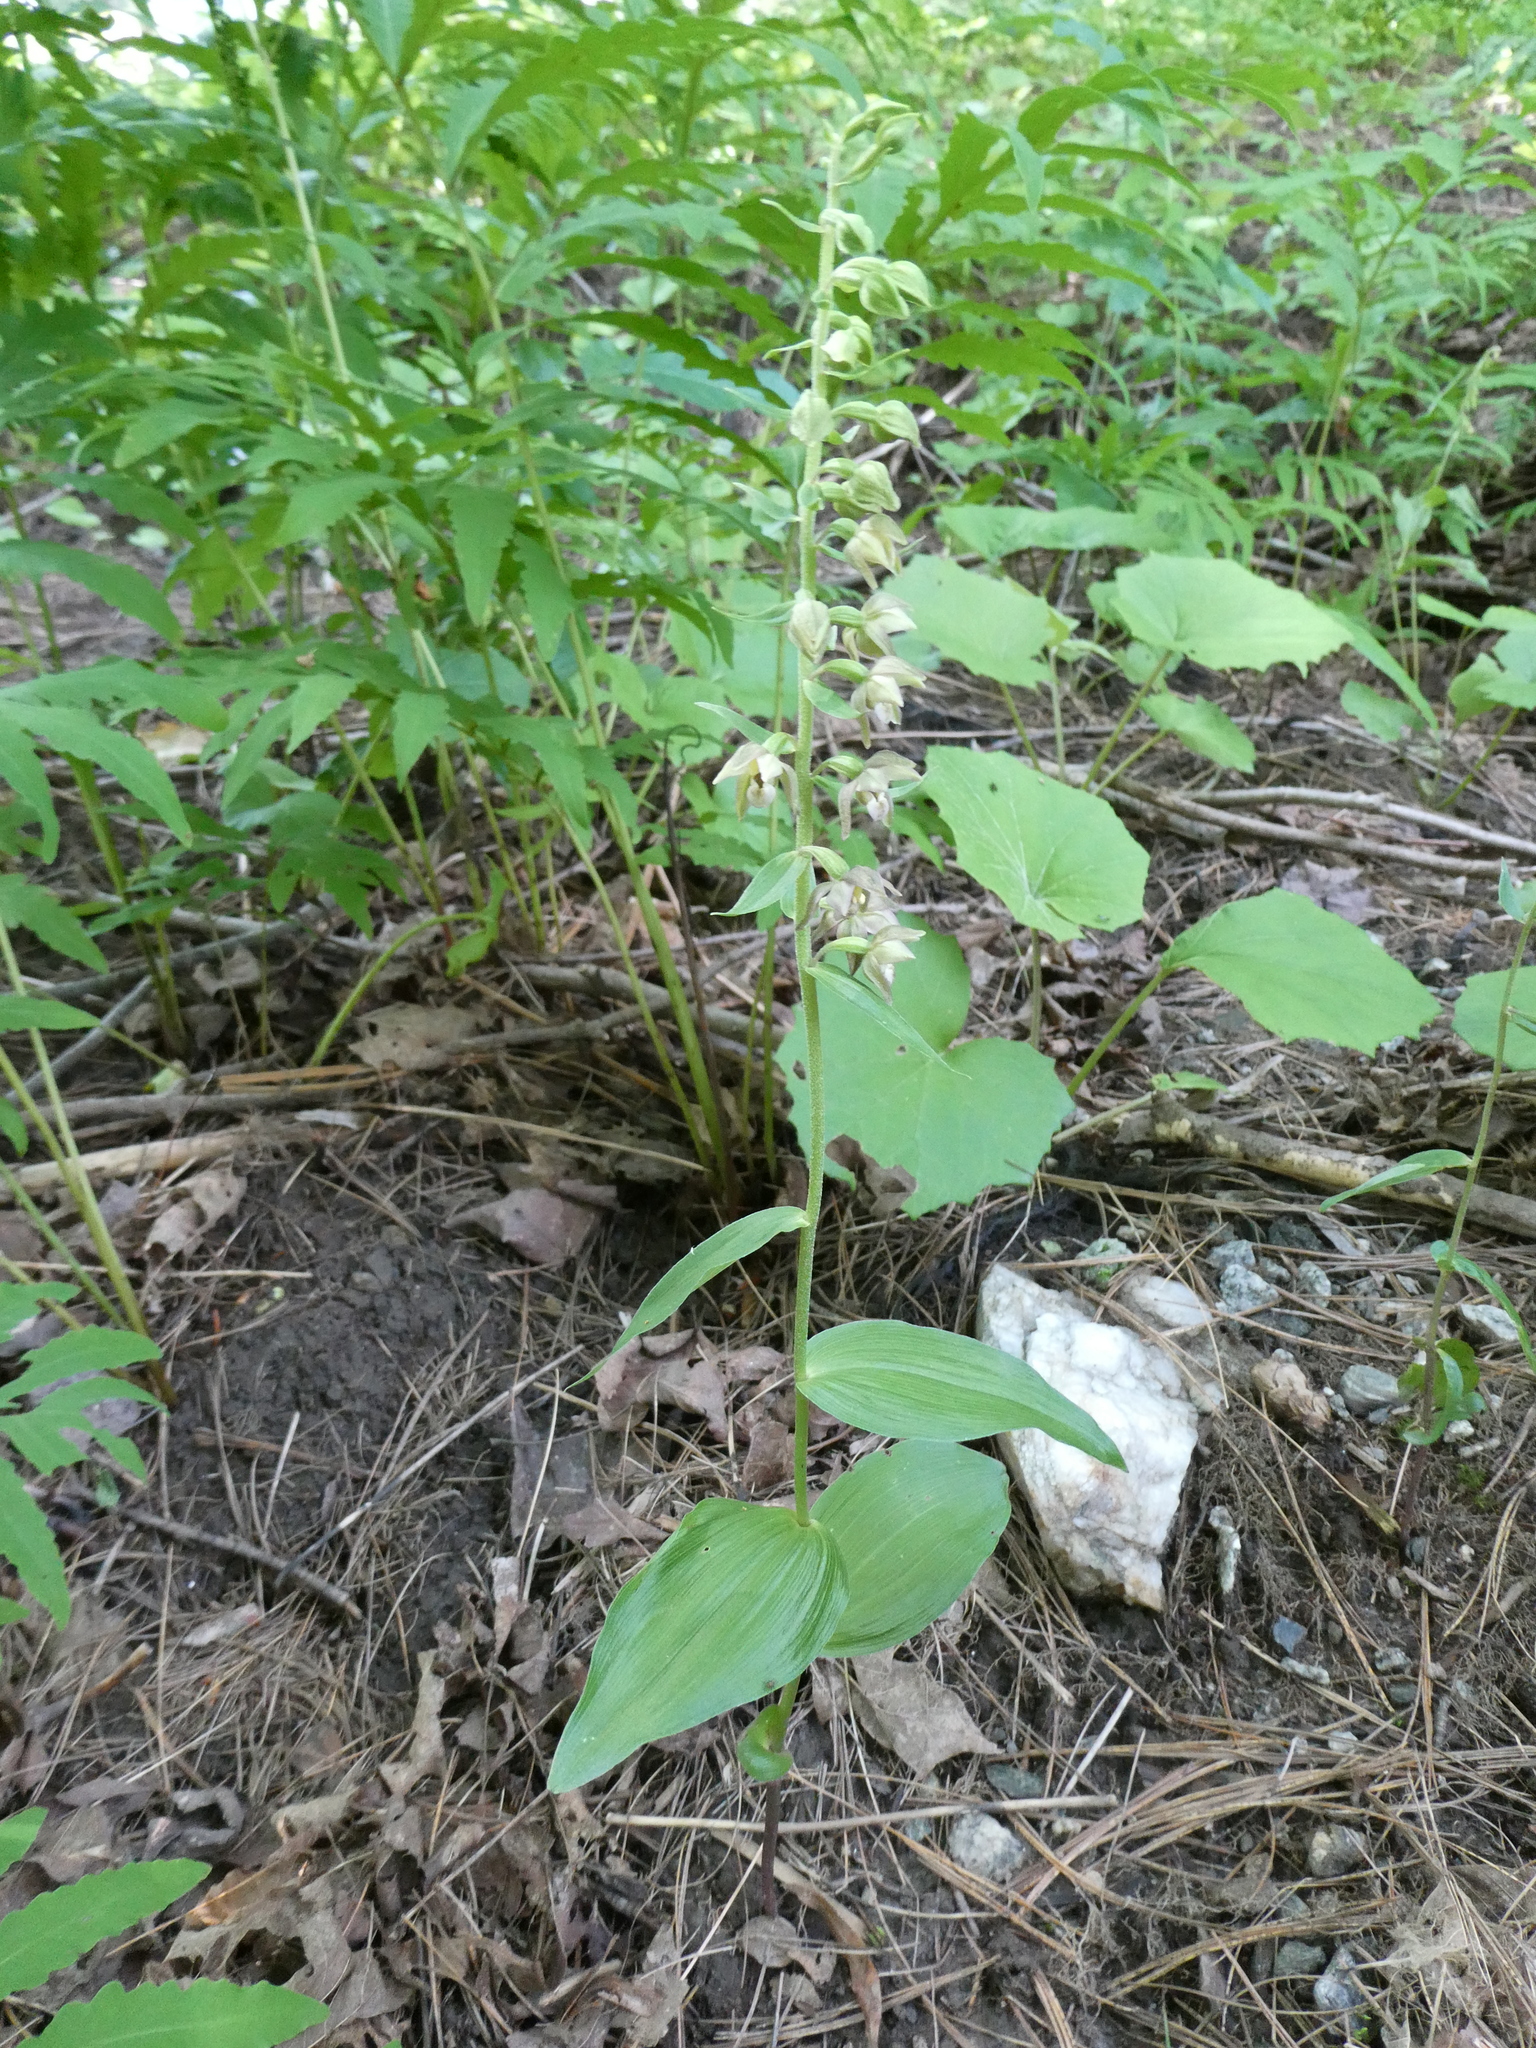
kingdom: Plantae
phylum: Tracheophyta
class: Liliopsida
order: Asparagales
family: Orchidaceae
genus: Epipactis
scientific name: Epipactis helleborine
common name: Broad-leaved helleborine
